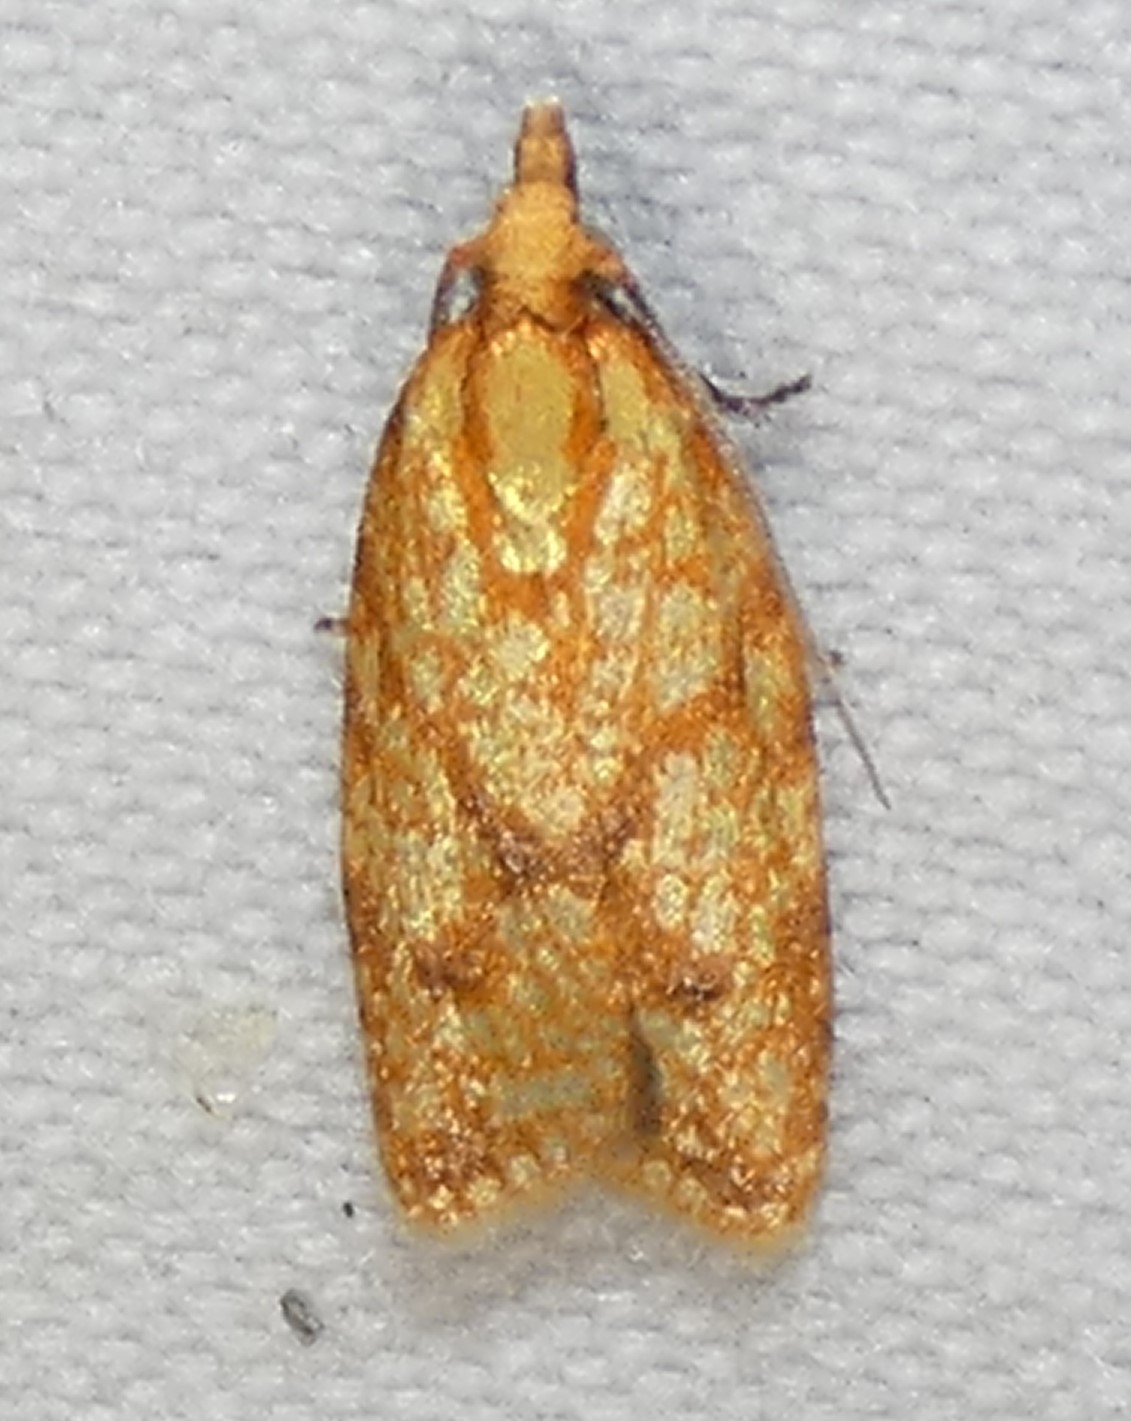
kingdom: Animalia
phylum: Arthropoda
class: Insecta
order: Lepidoptera
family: Tortricidae
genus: Sparganothis
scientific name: Sparganothis sulfureana
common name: Sparganothis fruitworm moth
